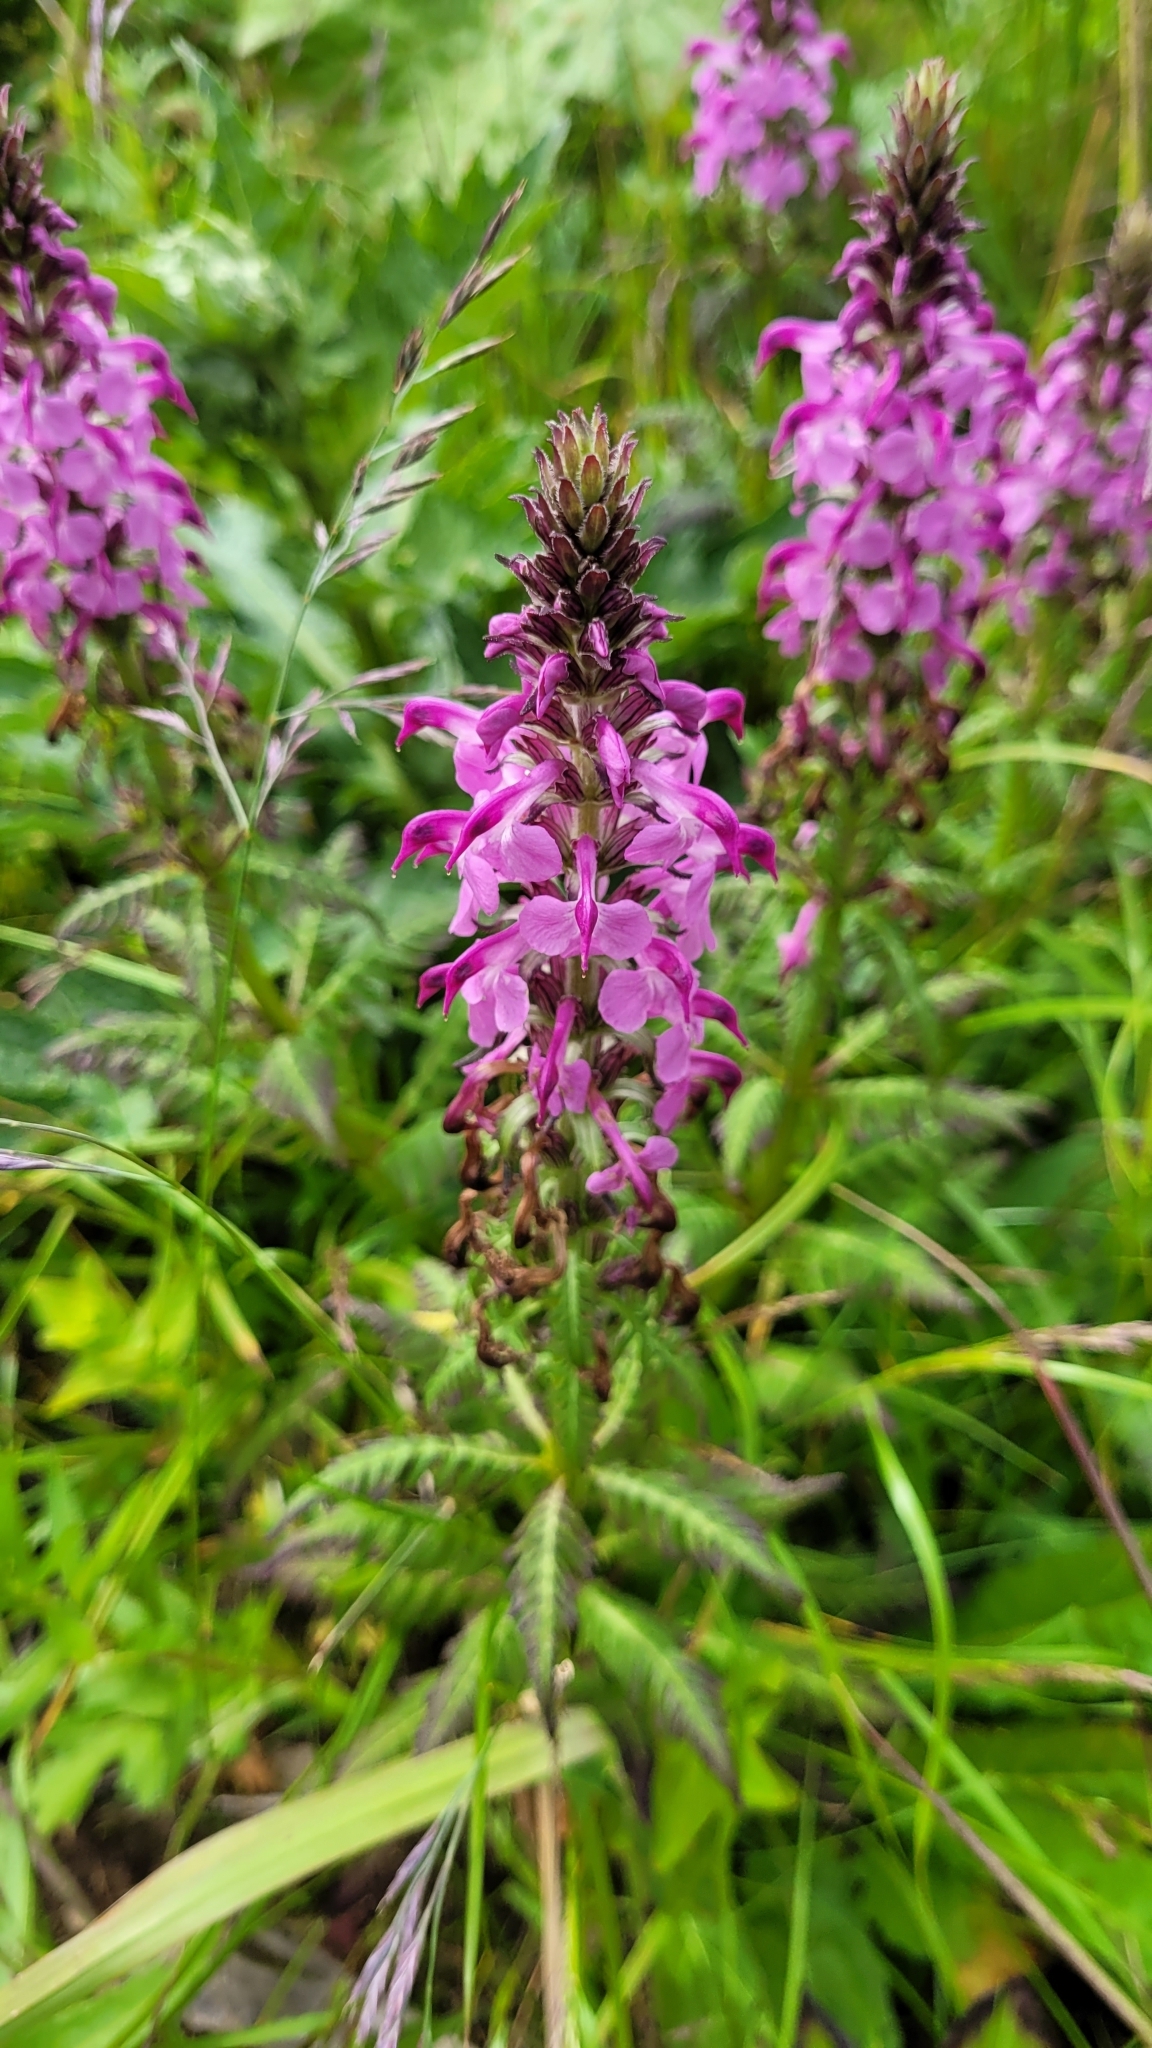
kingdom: Plantae
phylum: Tracheophyta
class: Magnoliopsida
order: Lamiales
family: Orobanchaceae
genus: Pedicularis
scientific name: Pedicularis chamissonis
